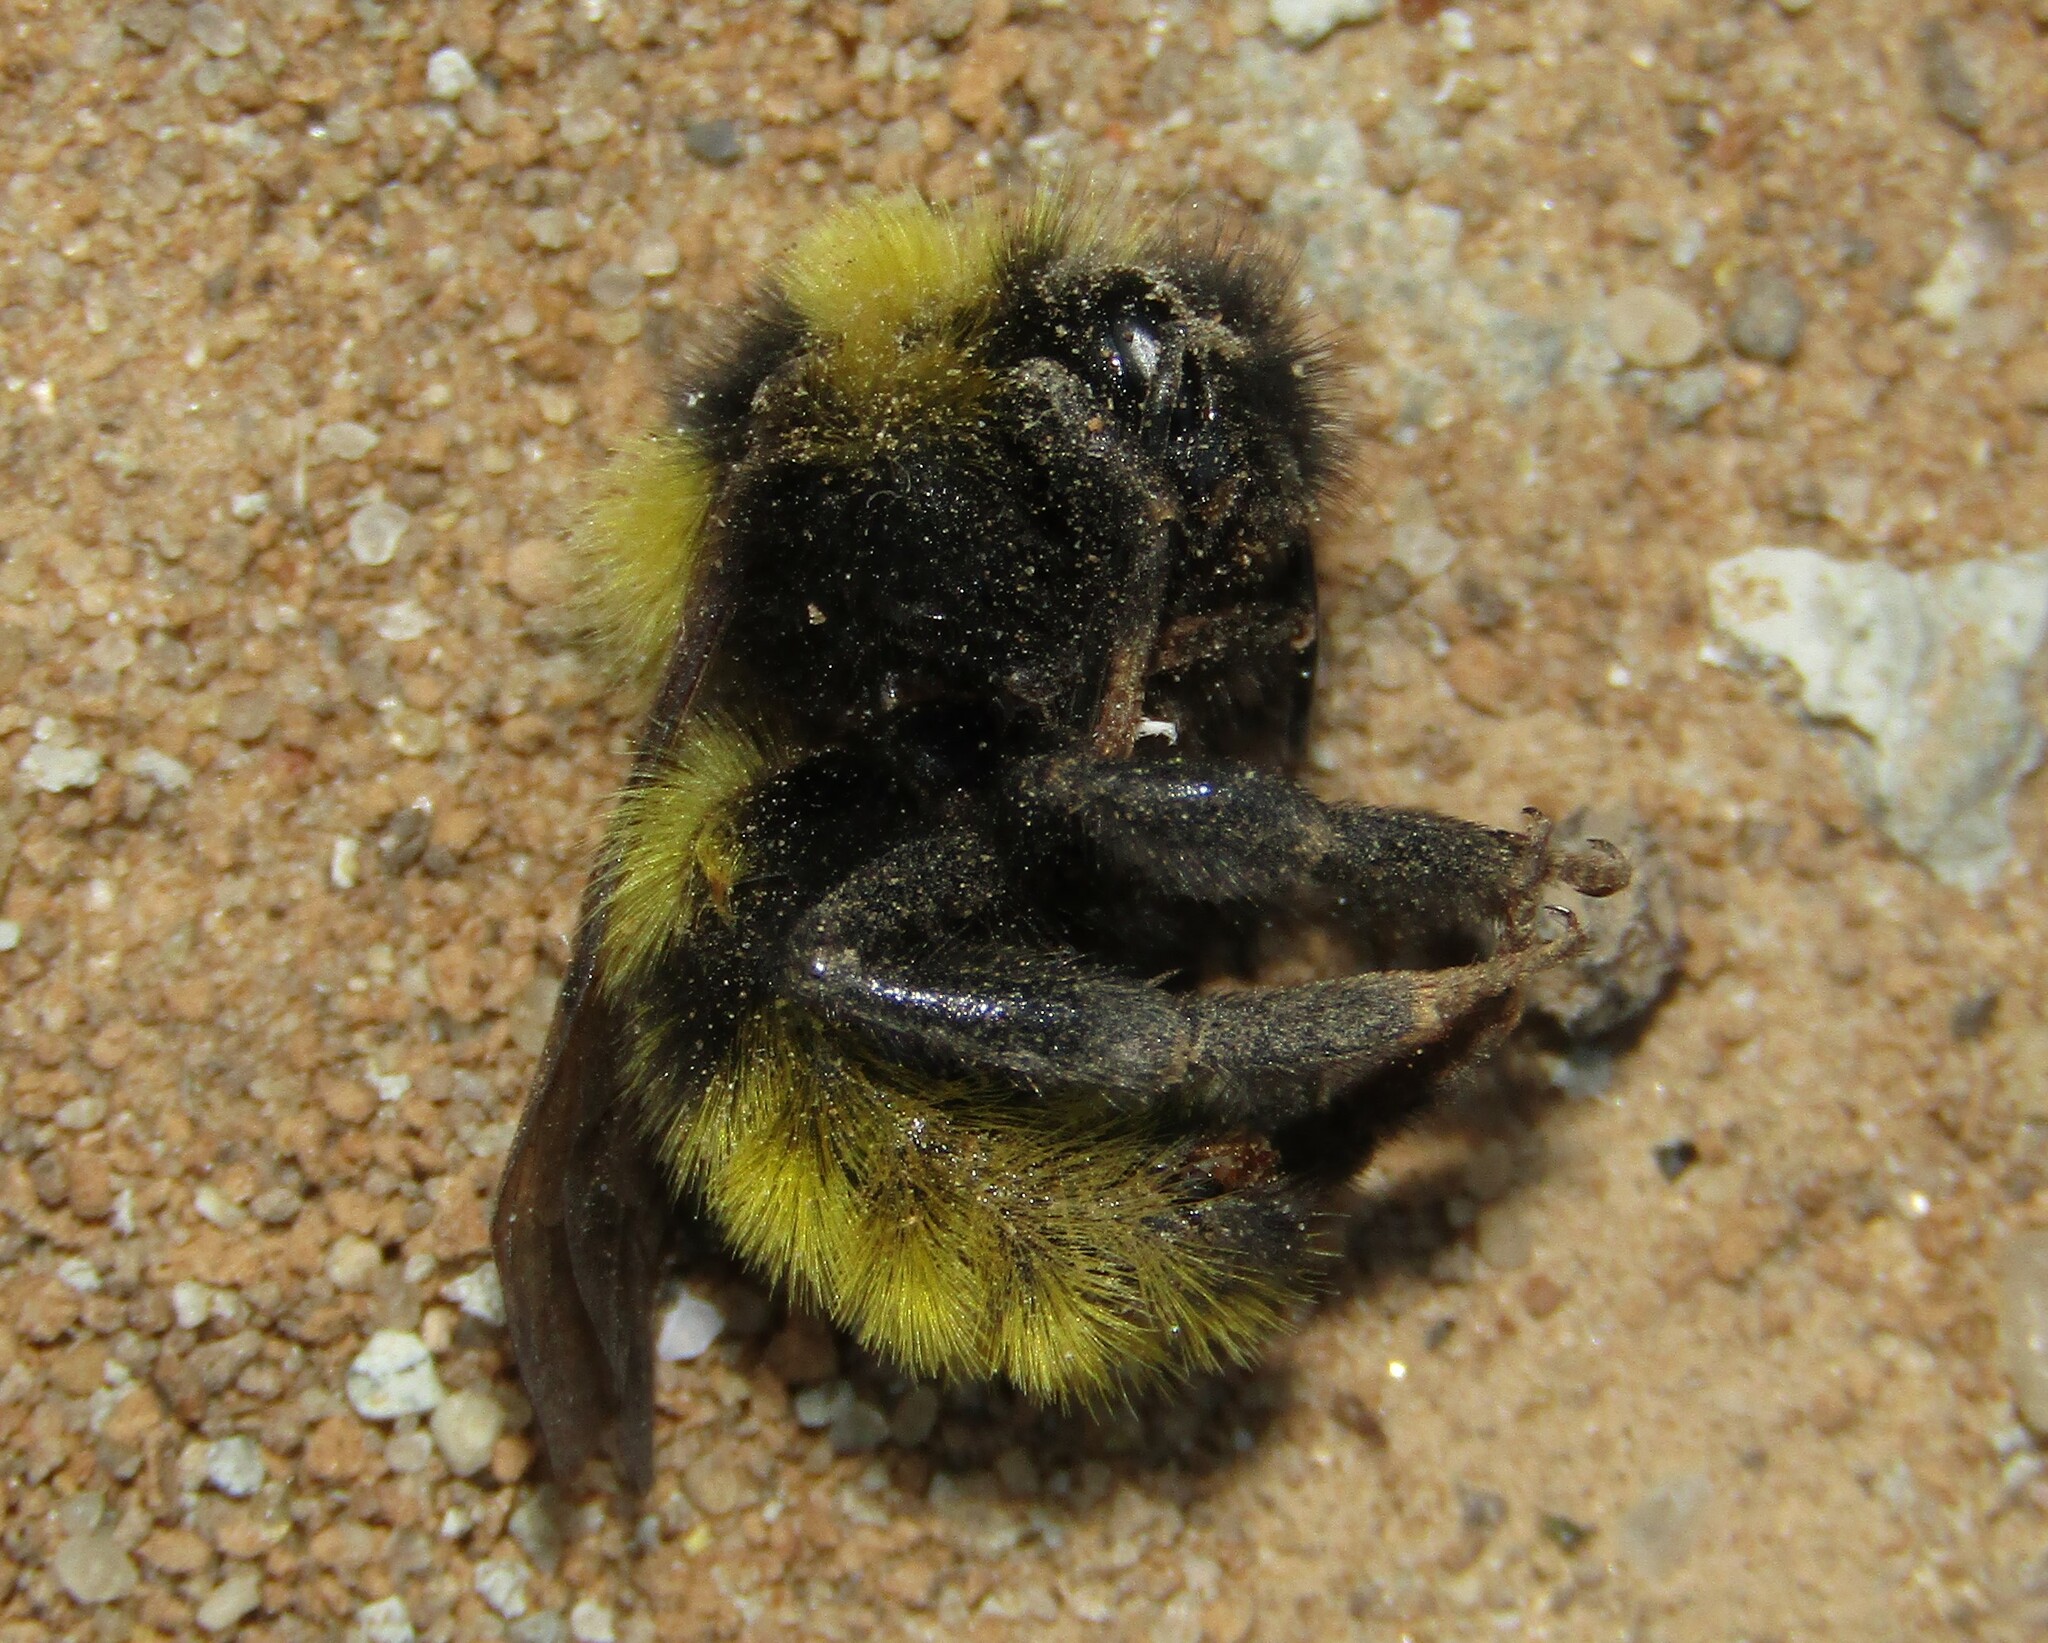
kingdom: Animalia
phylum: Arthropoda
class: Insecta
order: Hymenoptera
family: Apidae
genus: Bombus
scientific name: Bombus campestris
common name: Field cuckoo-bee
